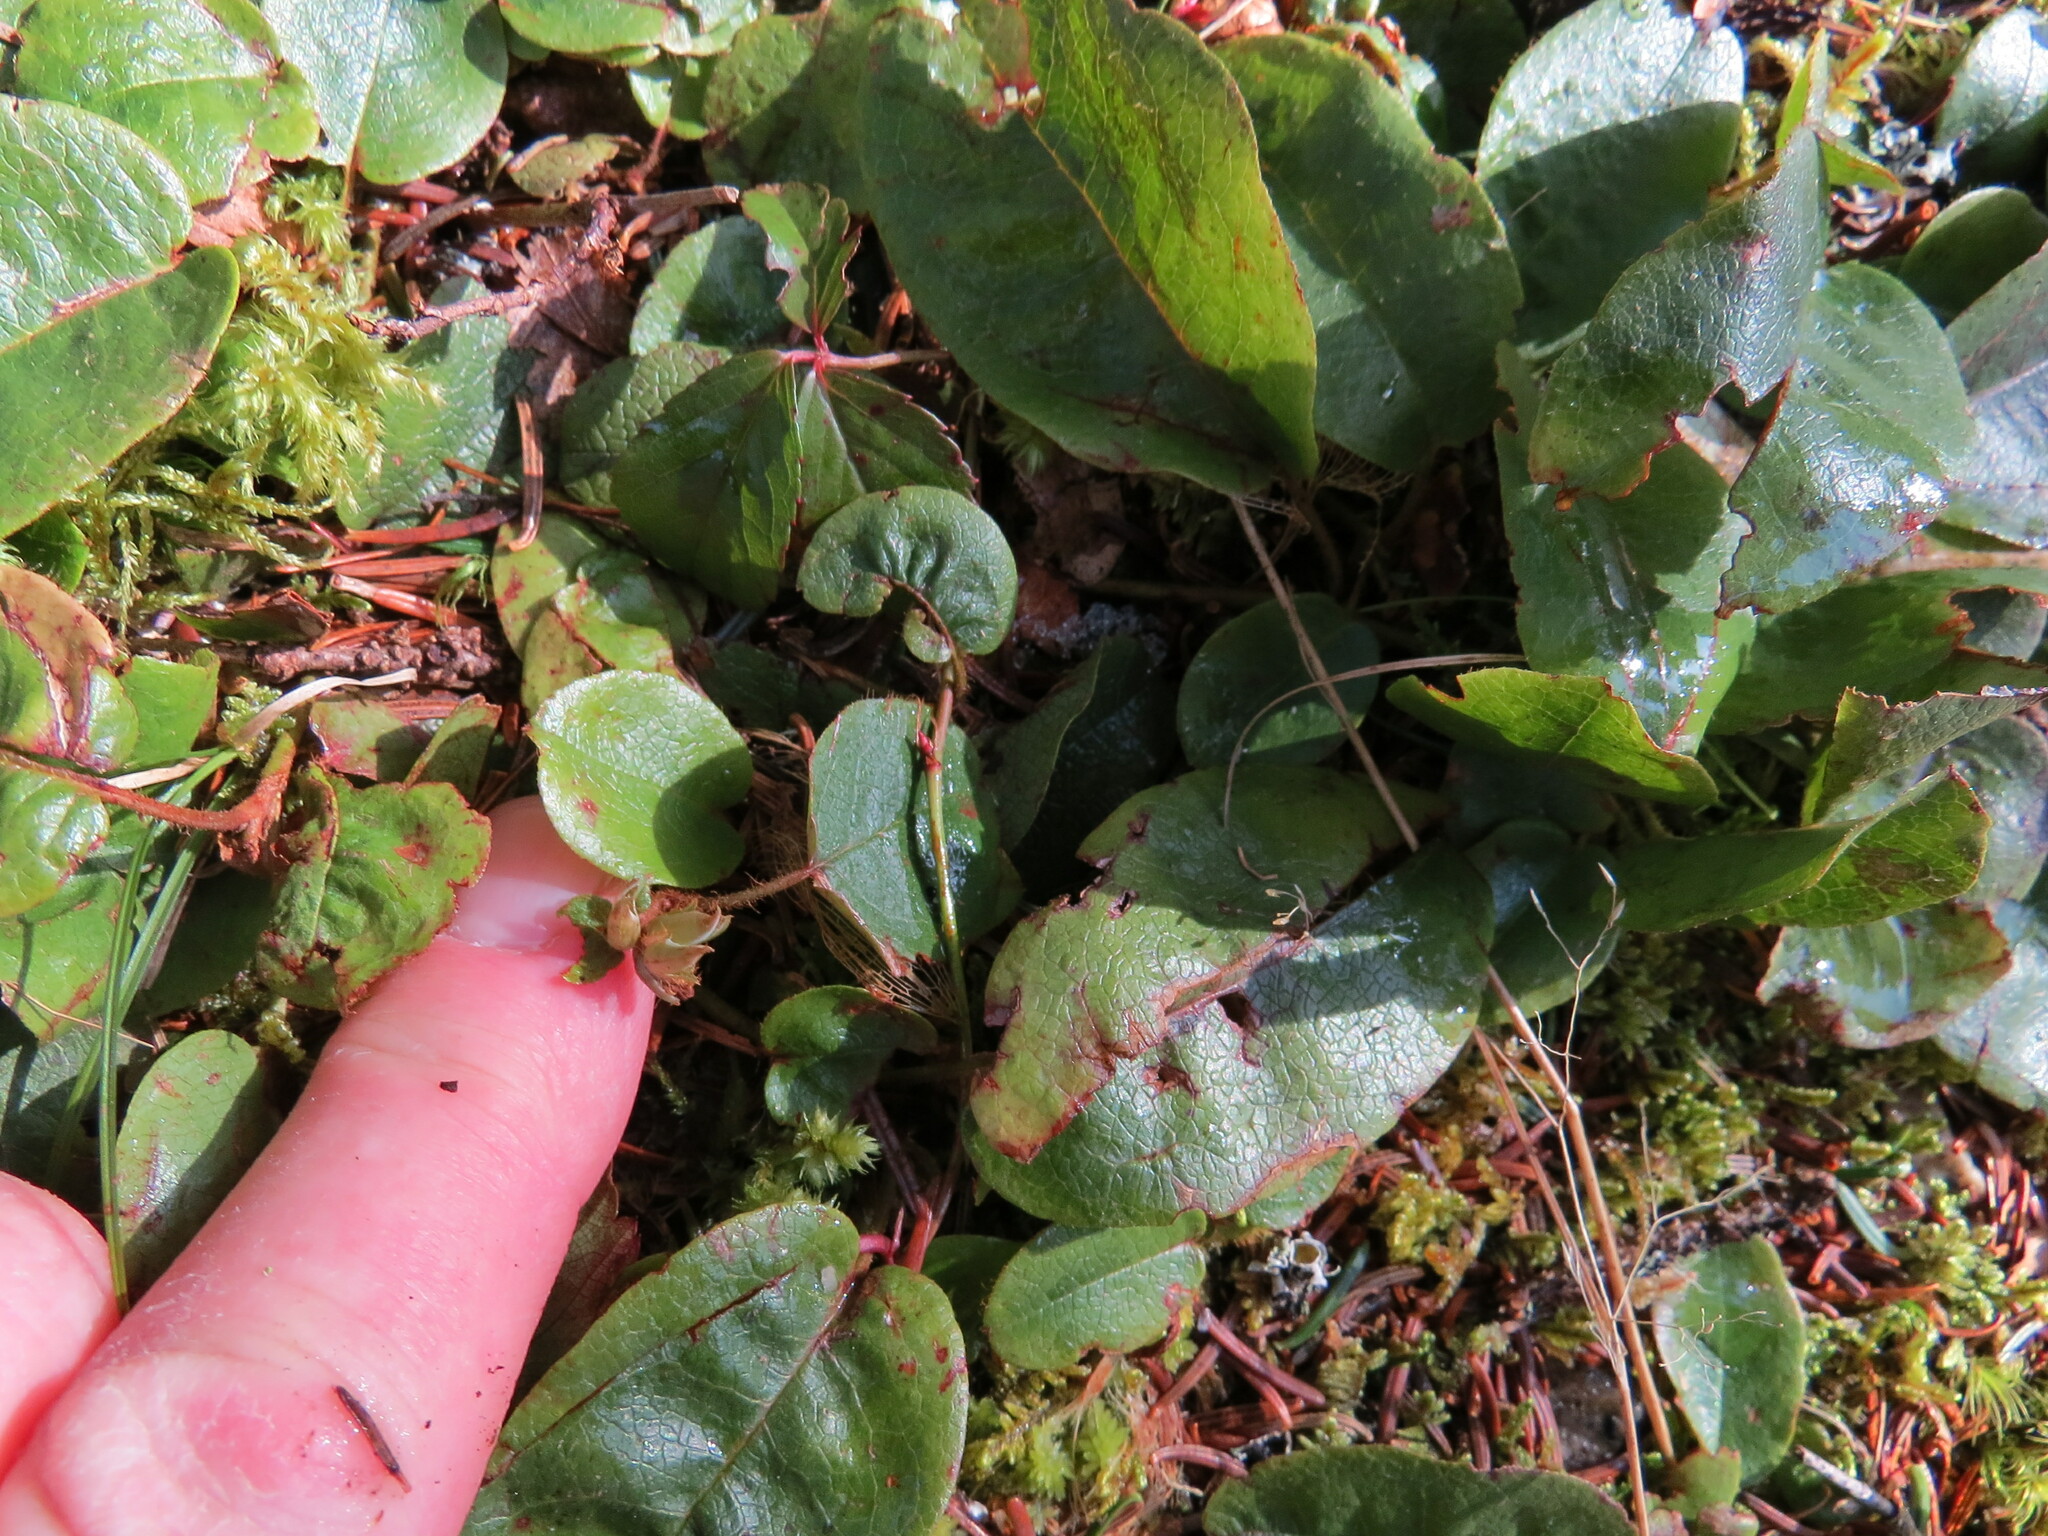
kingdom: Plantae
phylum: Tracheophyta
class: Magnoliopsida
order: Ericales
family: Ericaceae
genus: Epigaea
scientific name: Epigaea repens
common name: Gravelroot
